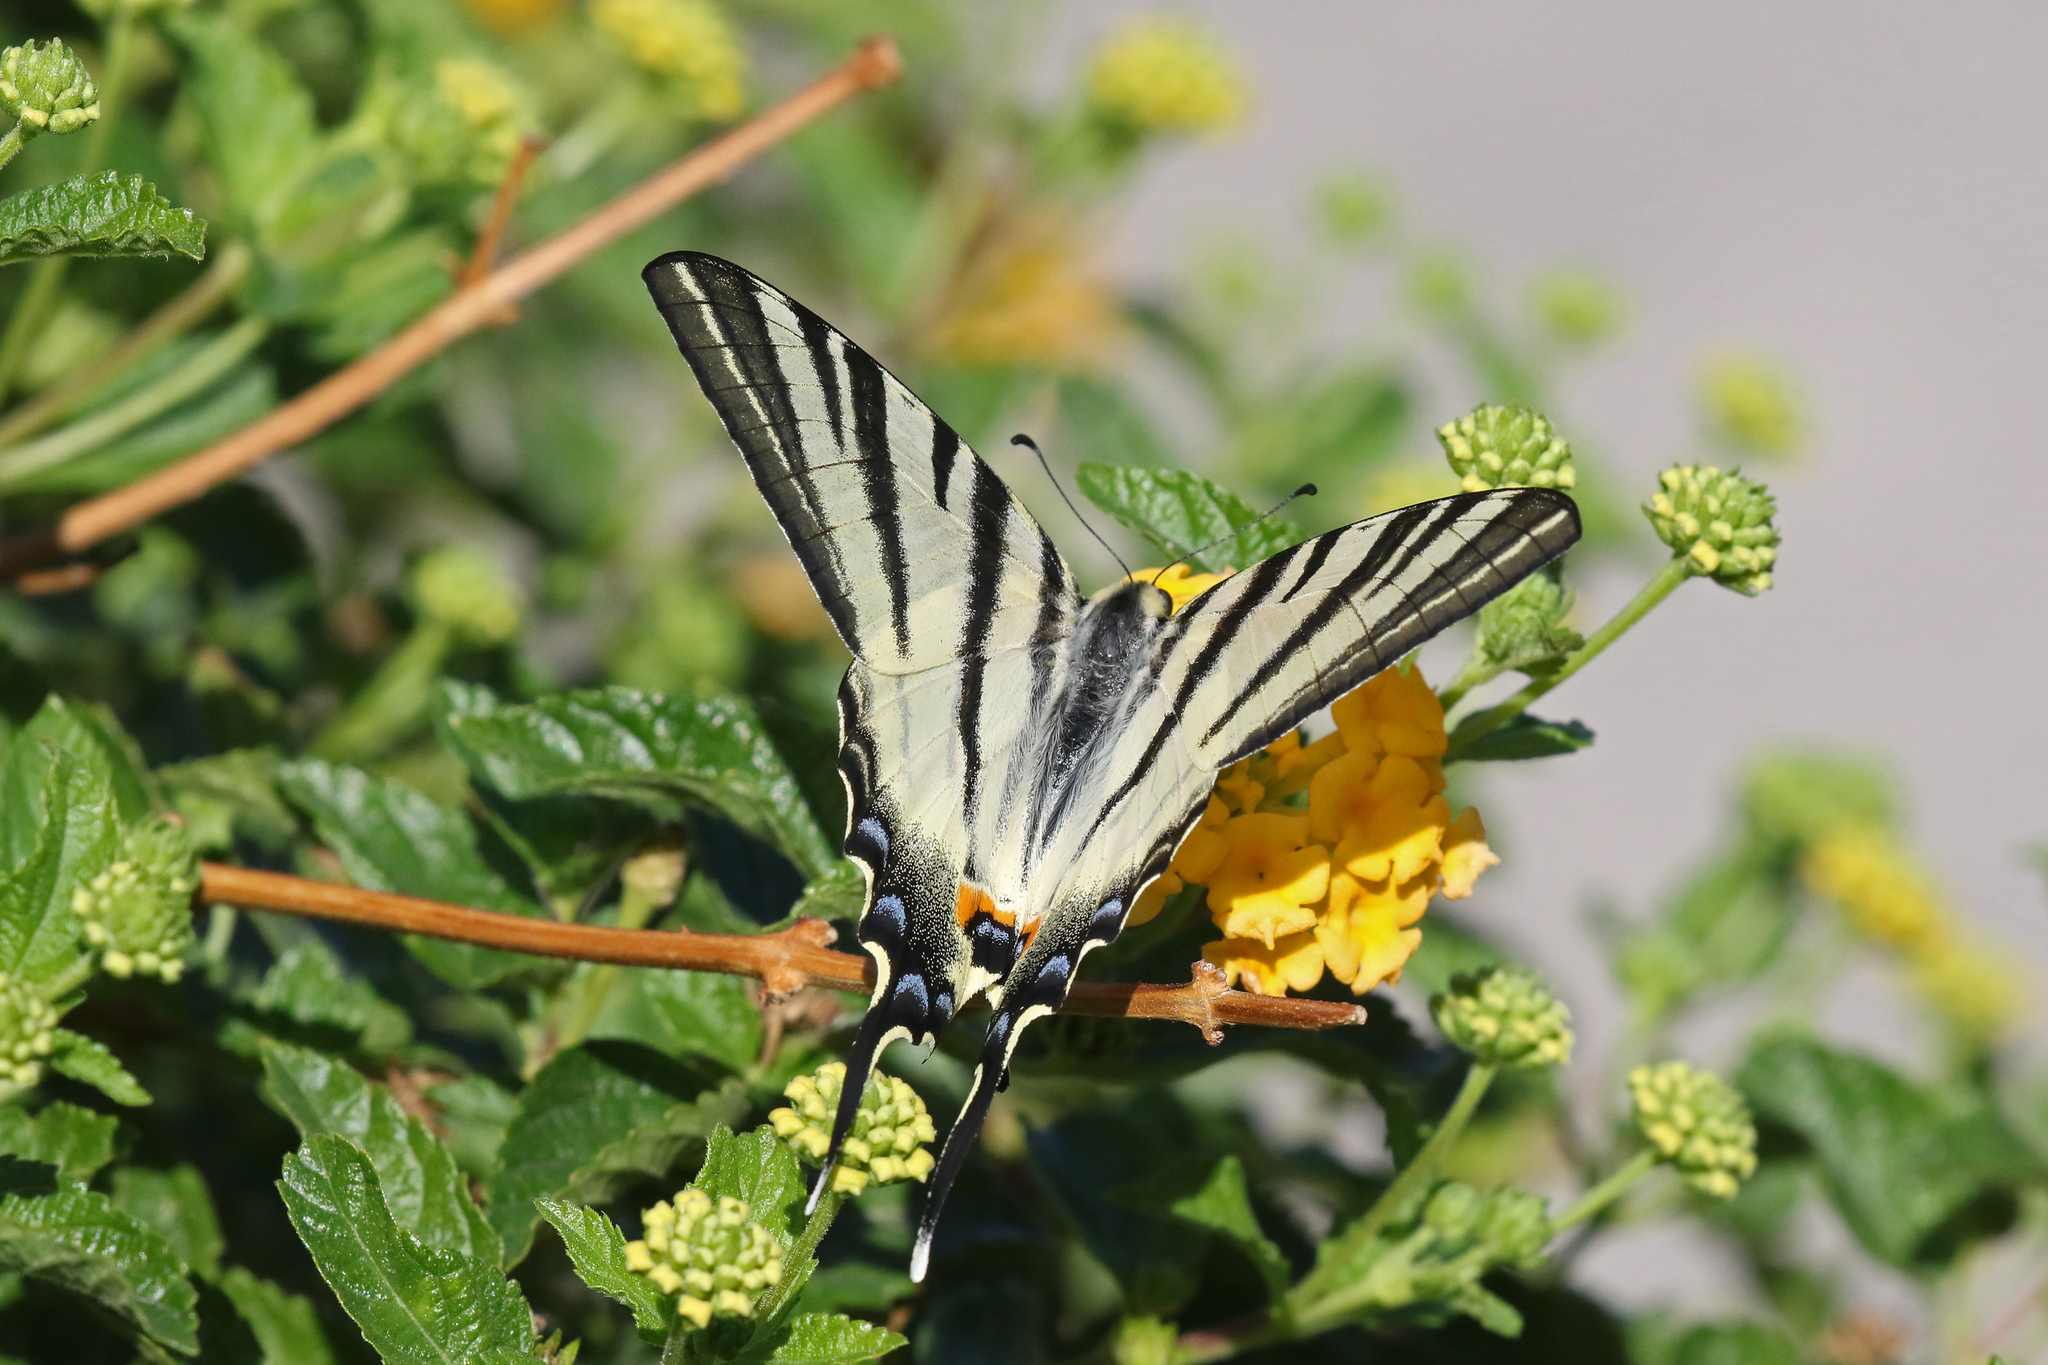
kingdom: Animalia
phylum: Arthropoda
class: Insecta
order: Lepidoptera
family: Papilionidae
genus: Iphiclides
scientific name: Iphiclides podalirius
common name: Scarce swallowtail
